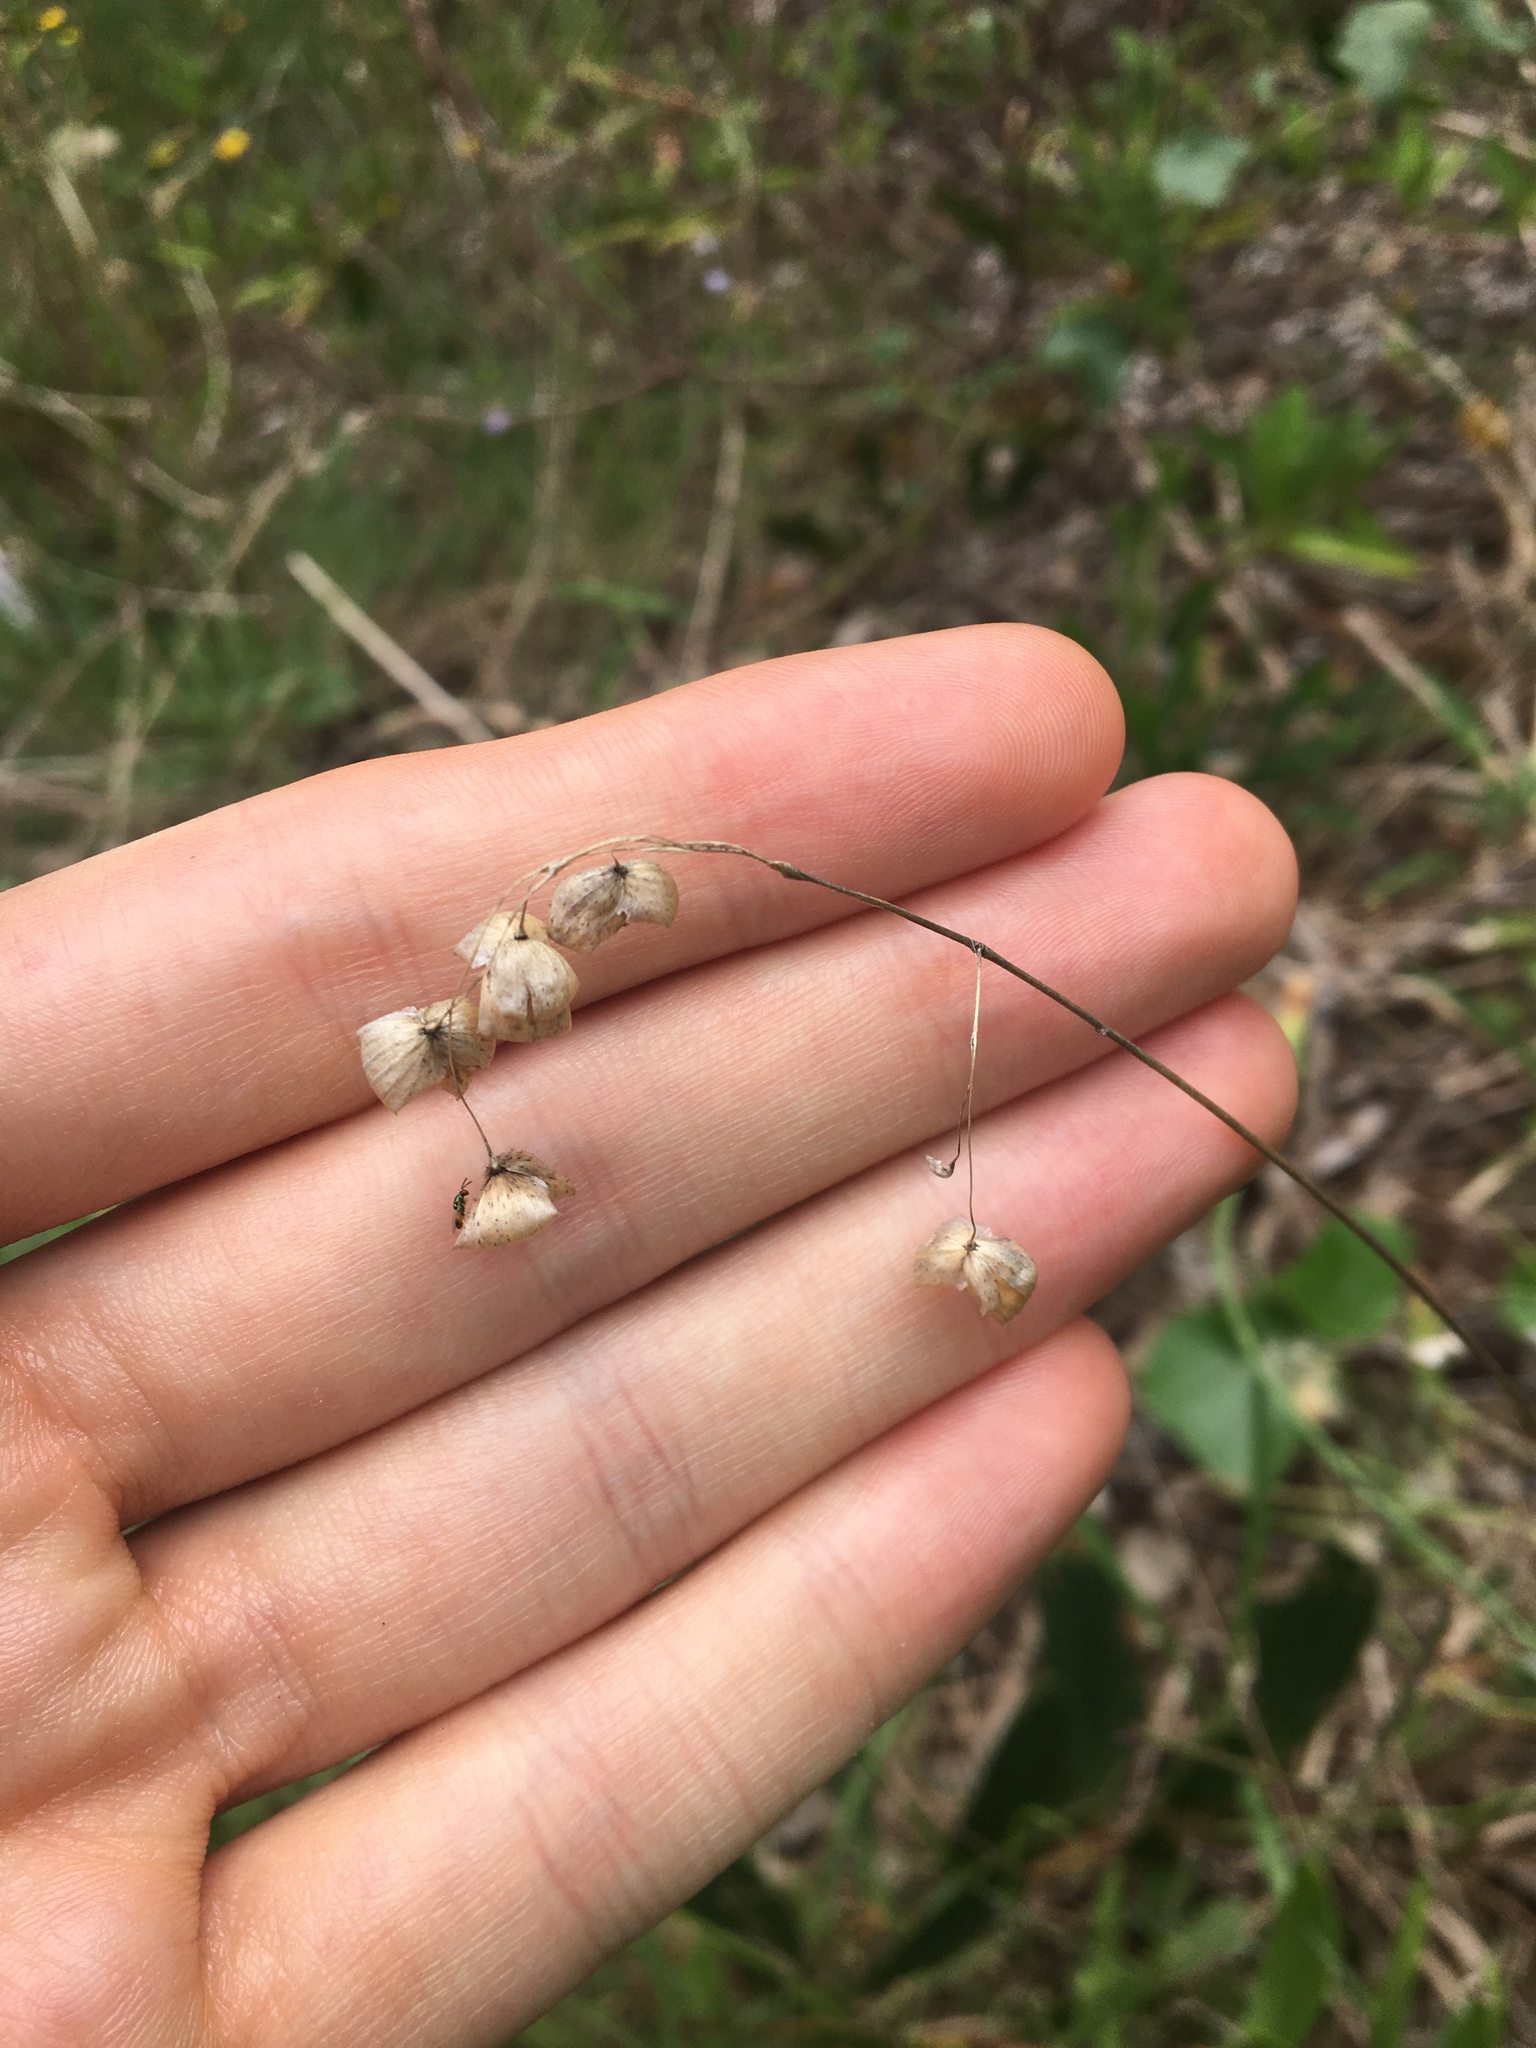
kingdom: Plantae
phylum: Tracheophyta
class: Liliopsida
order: Poales
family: Poaceae
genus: Briza
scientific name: Briza maxima
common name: Big quakinggrass
